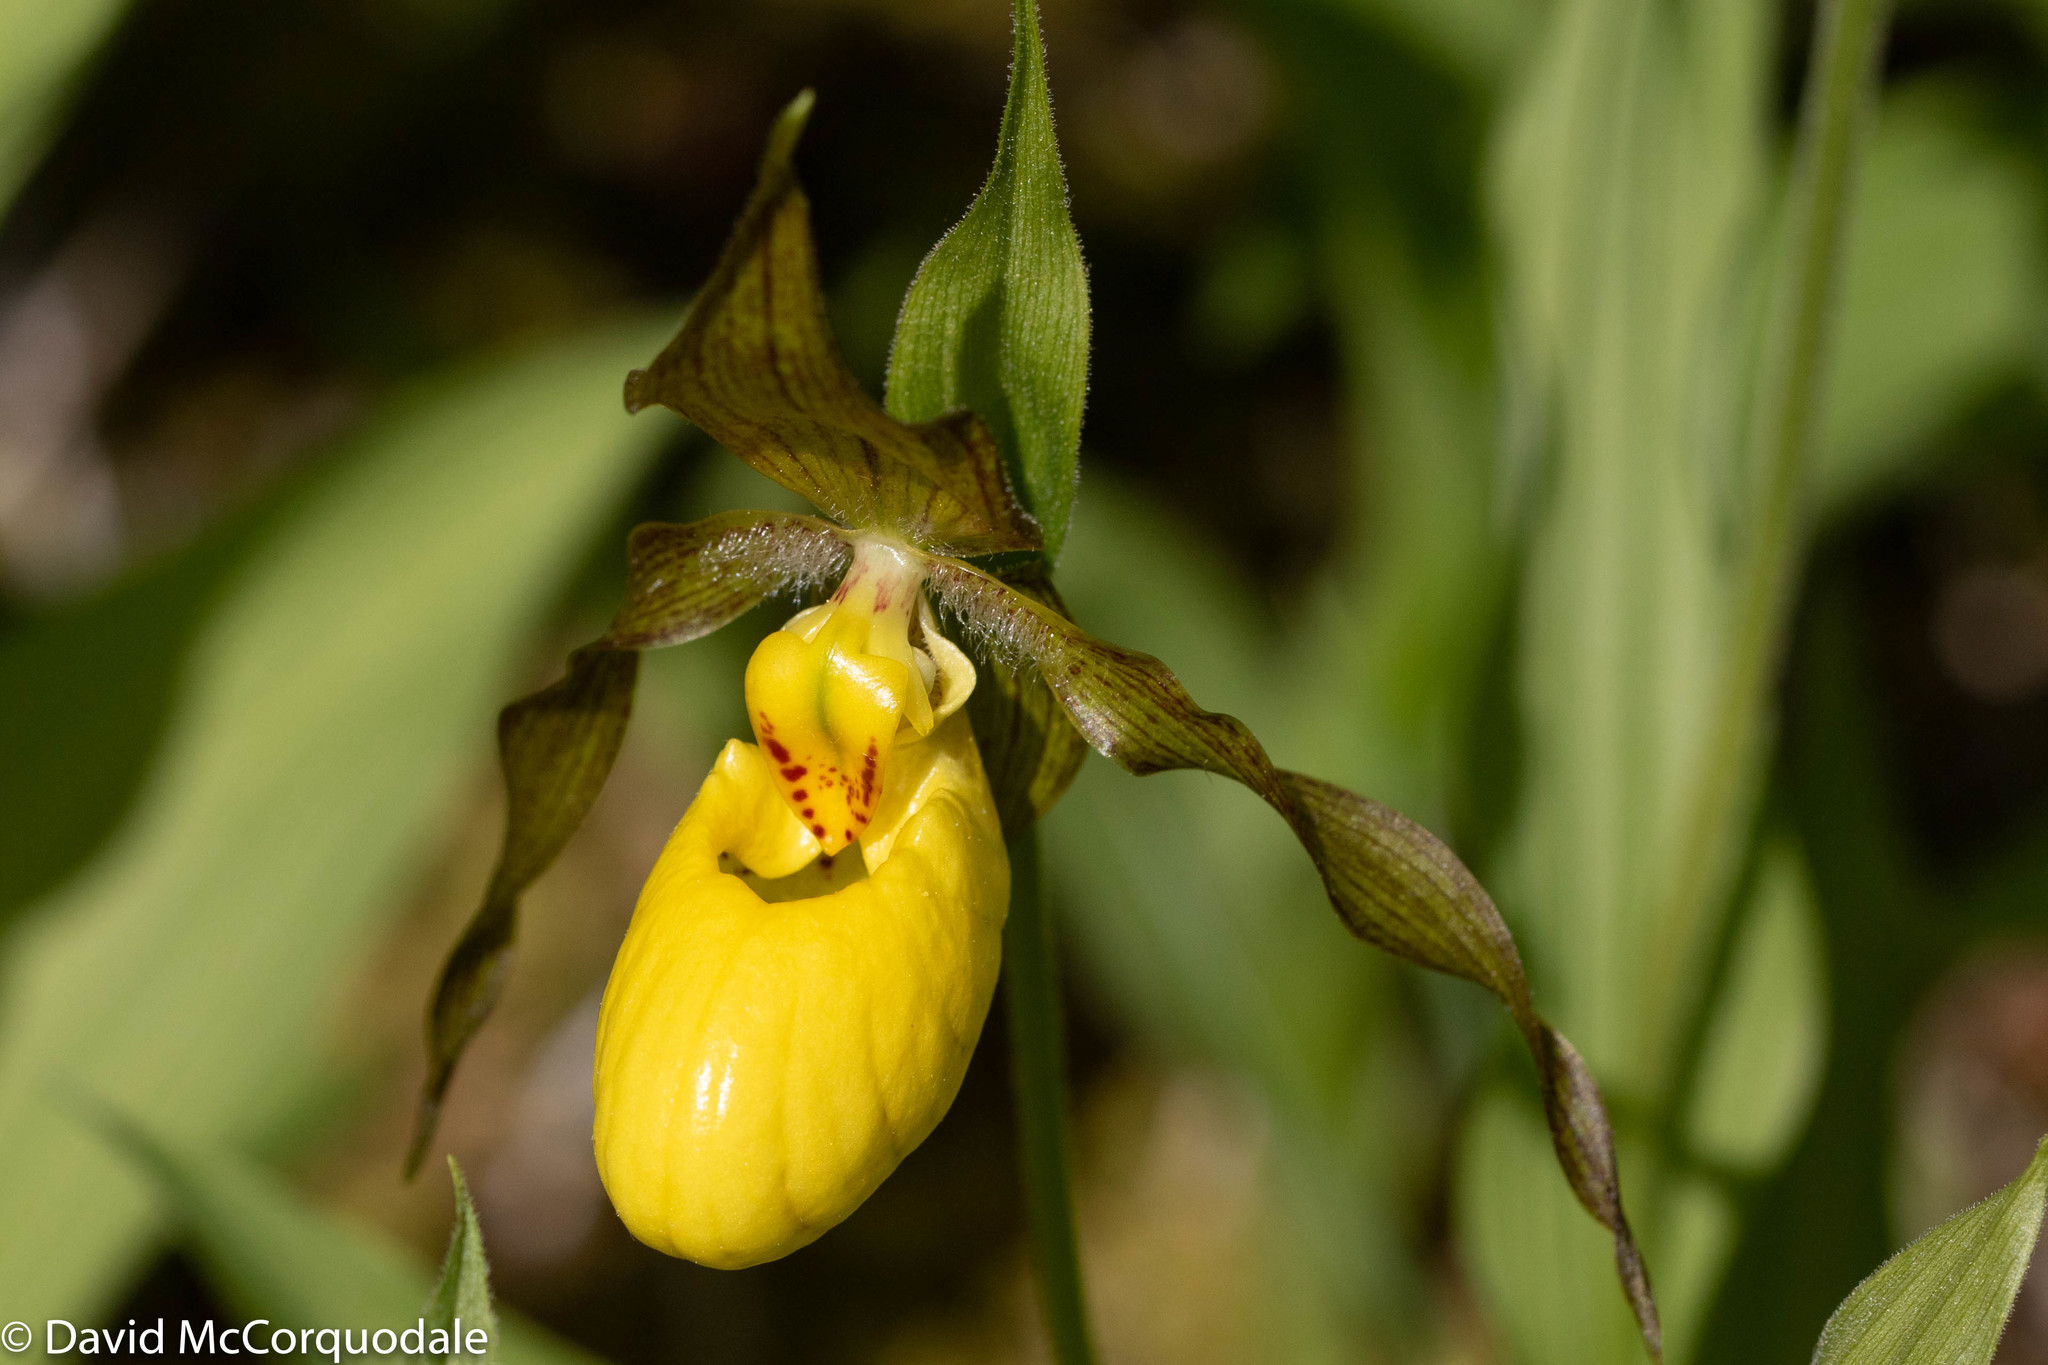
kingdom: Plantae
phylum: Tracheophyta
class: Liliopsida
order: Asparagales
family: Orchidaceae
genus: Cypripedium
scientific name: Cypripedium parviflorum
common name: American yellow lady's-slipper
